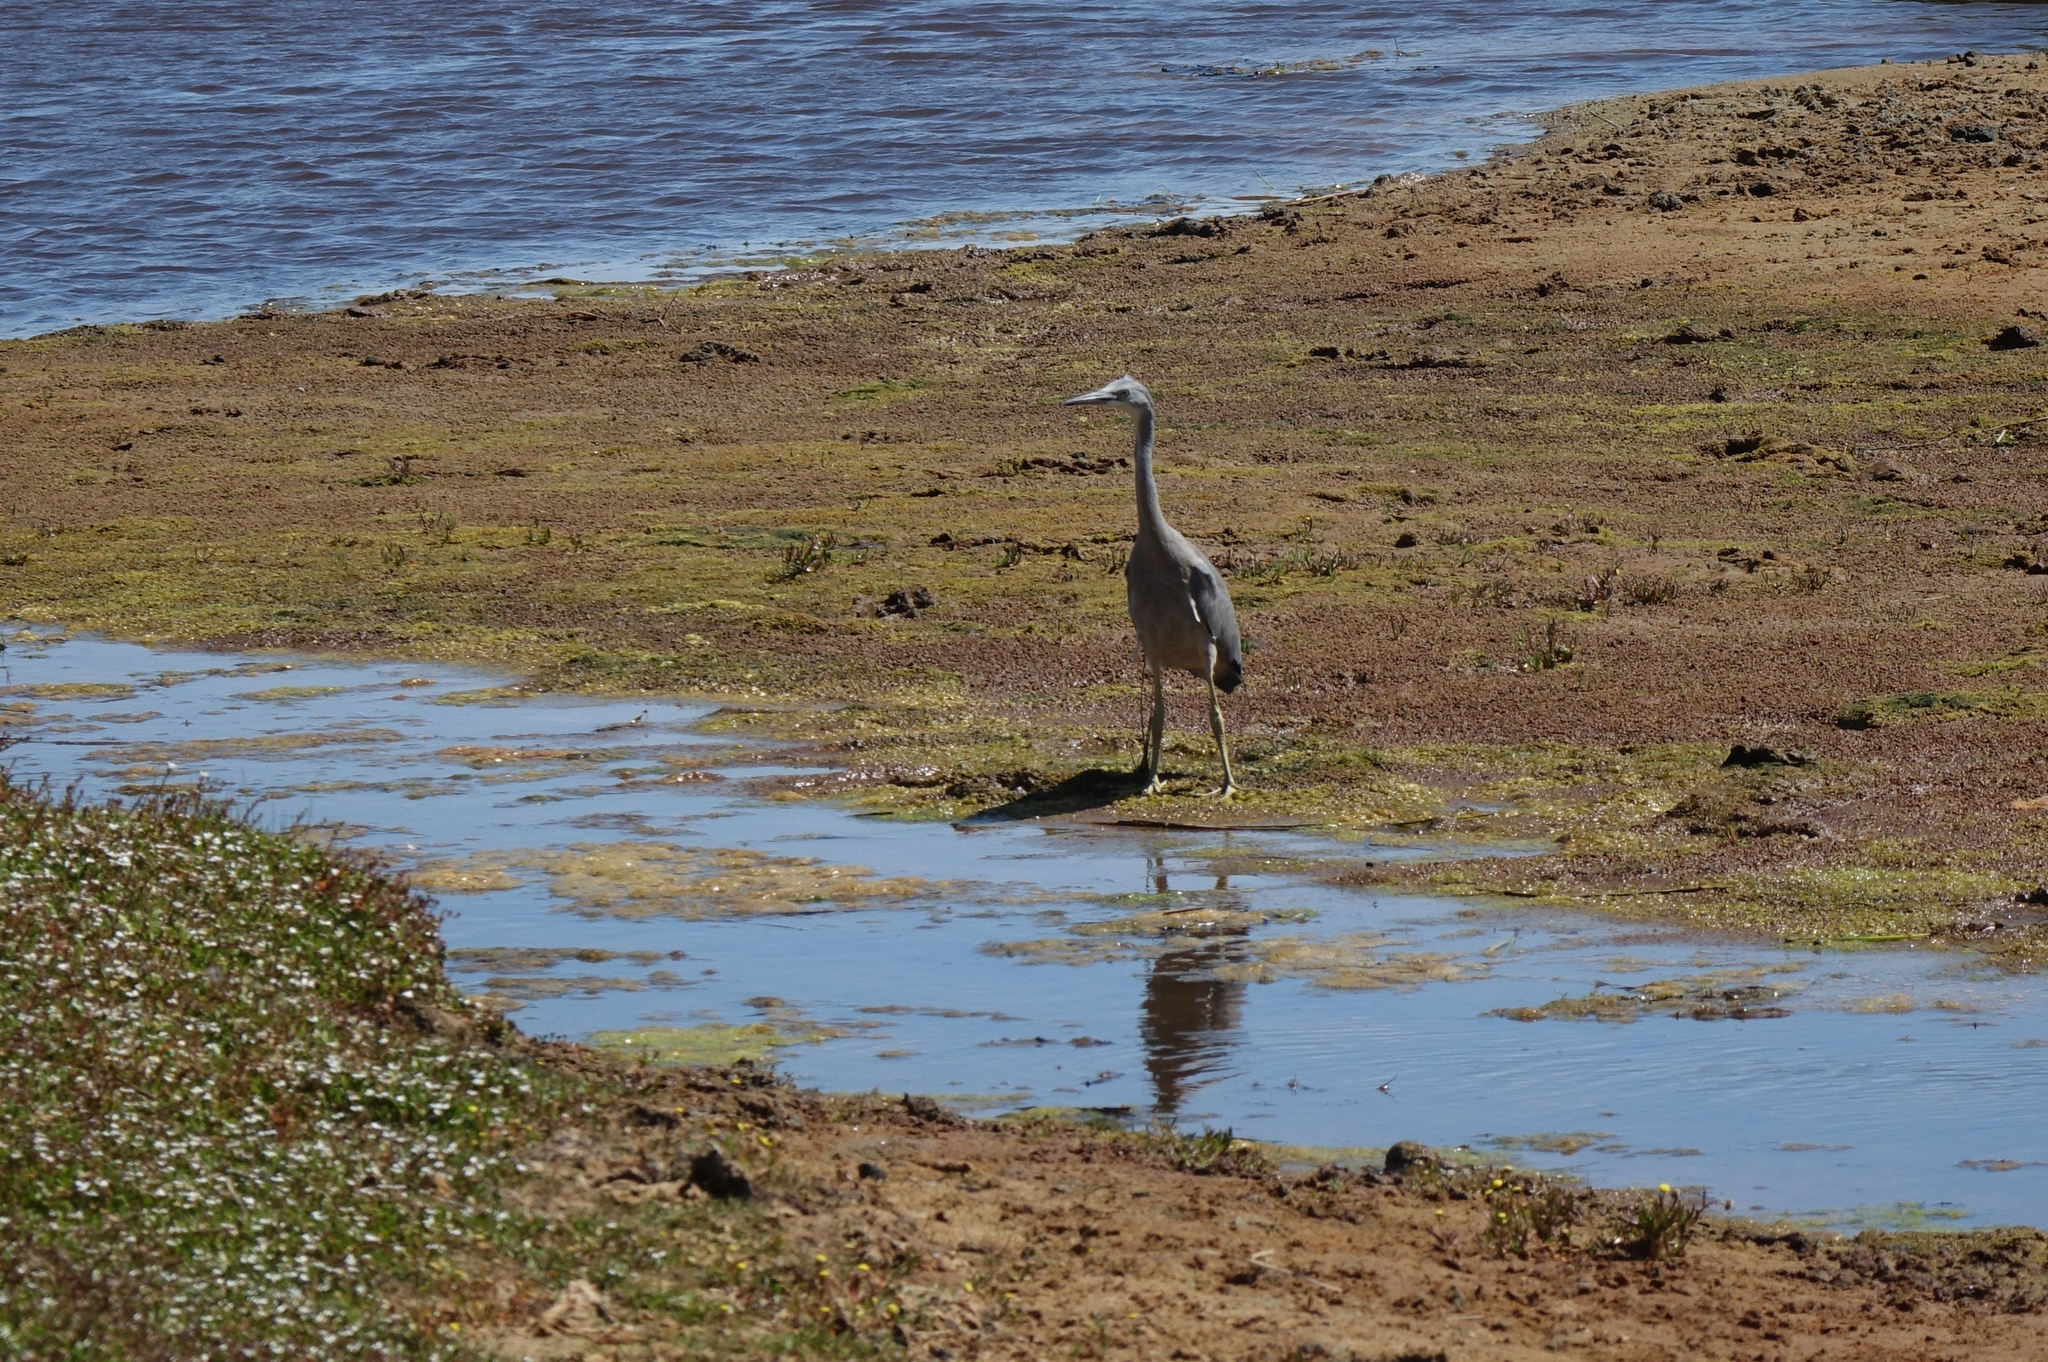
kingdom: Animalia
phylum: Chordata
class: Aves
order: Pelecaniformes
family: Ardeidae
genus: Egretta
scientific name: Egretta novaehollandiae
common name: White-faced heron
